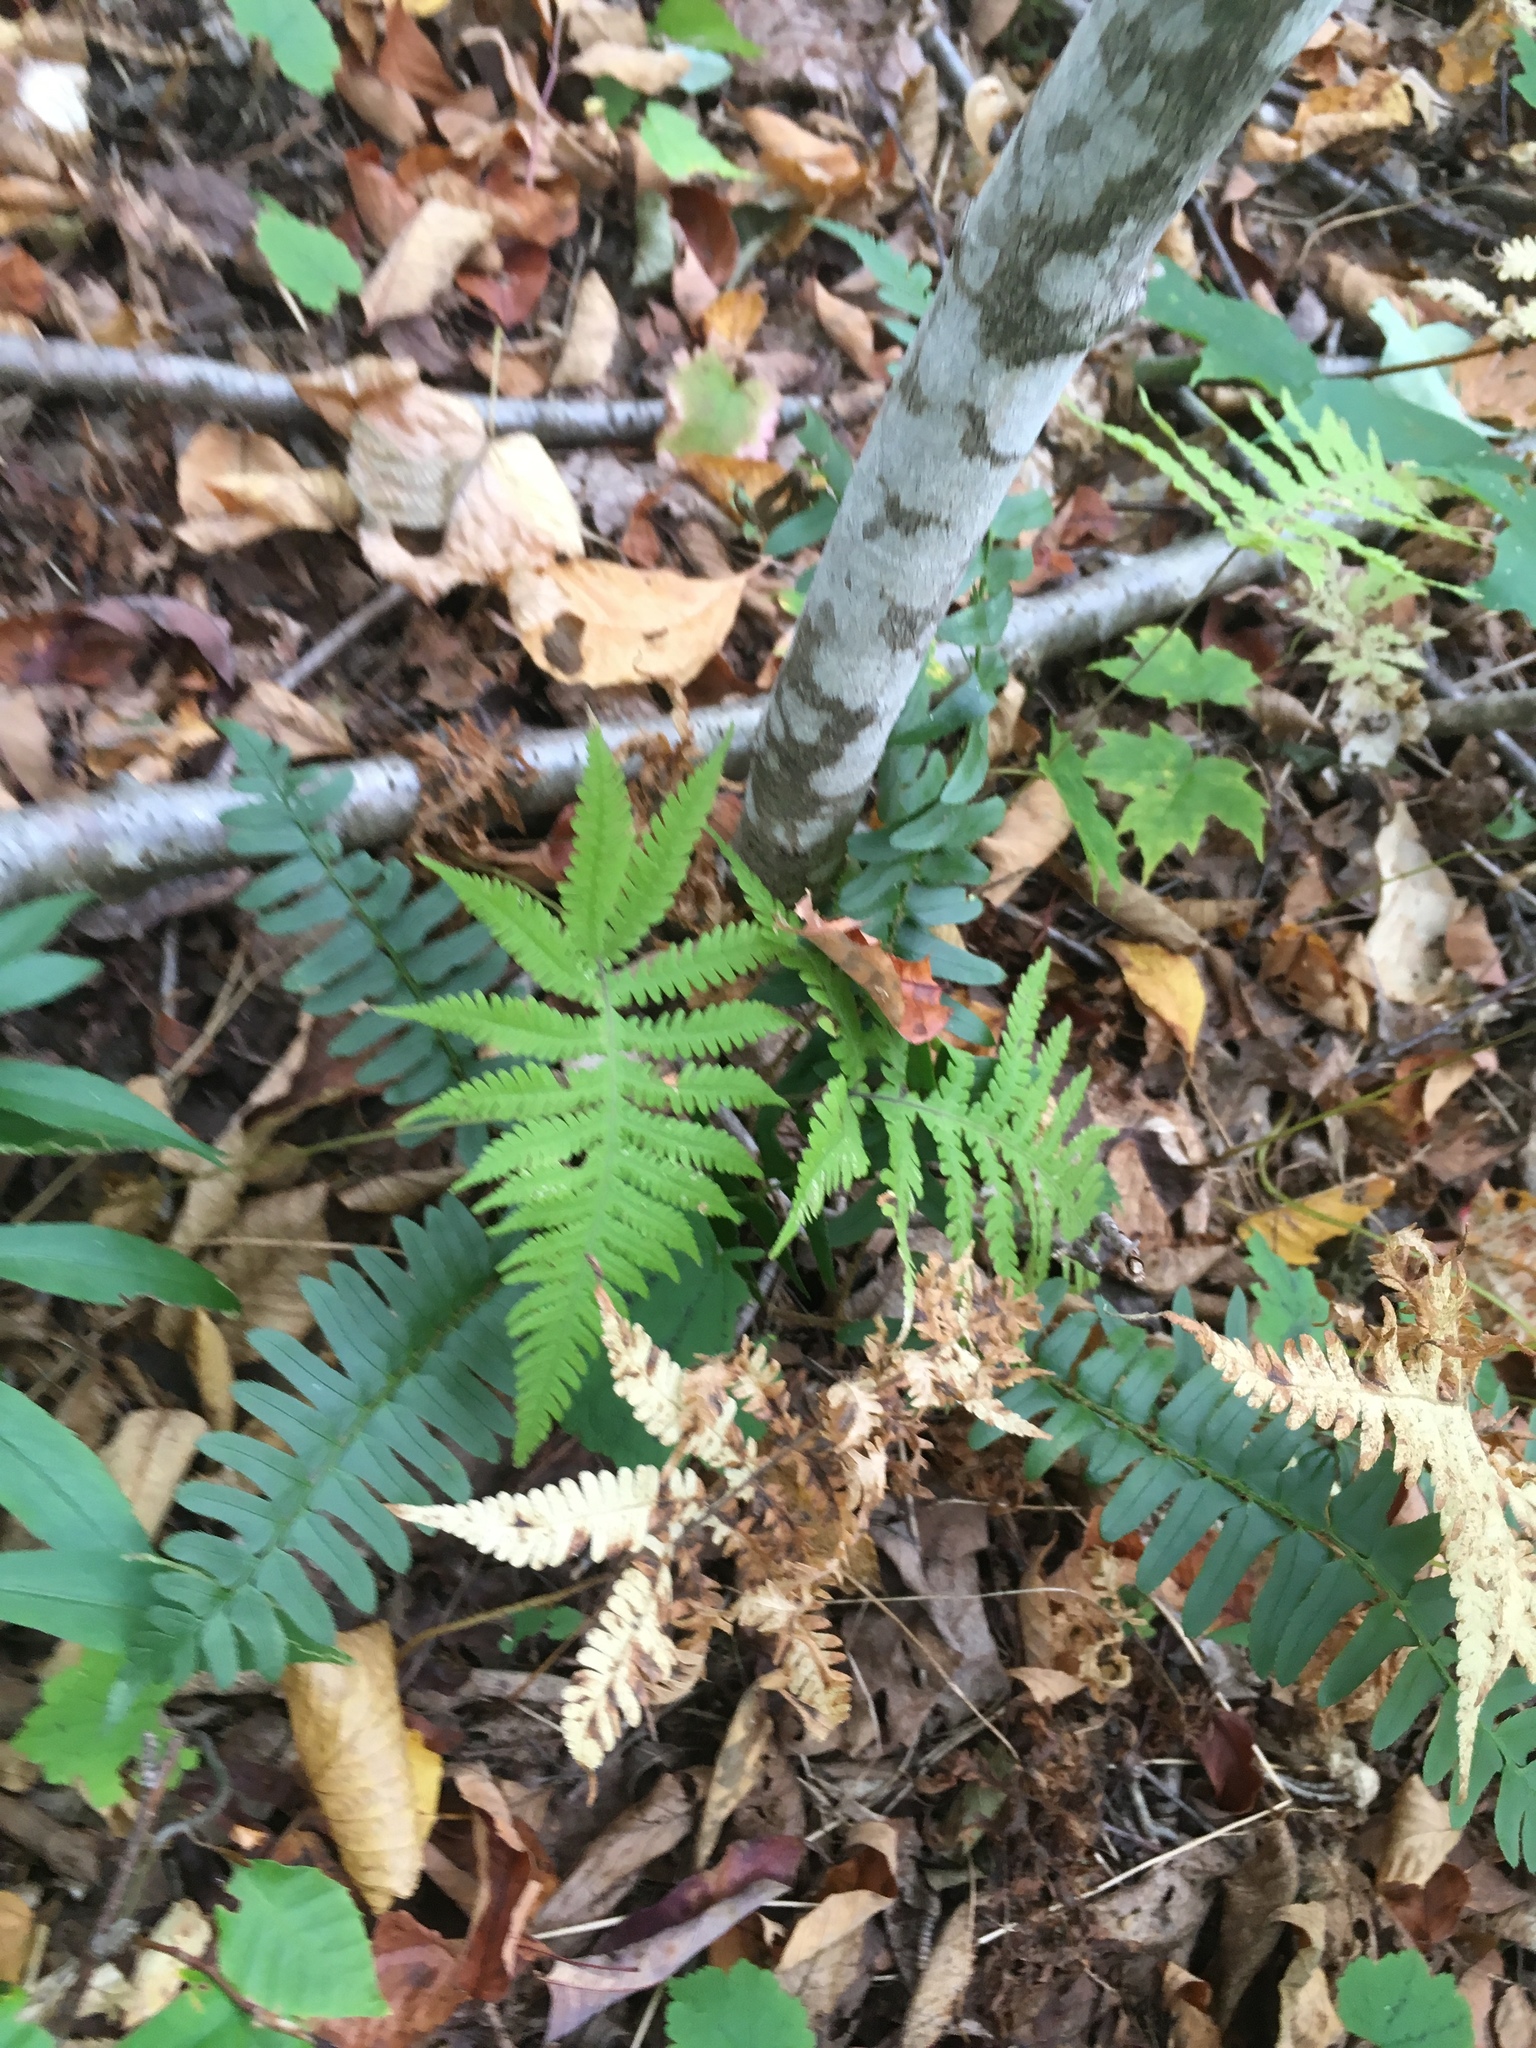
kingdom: Plantae
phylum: Tracheophyta
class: Polypodiopsida
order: Polypodiales
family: Thelypteridaceae
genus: Phegopteris
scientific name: Phegopteris connectilis
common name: Beech fern
